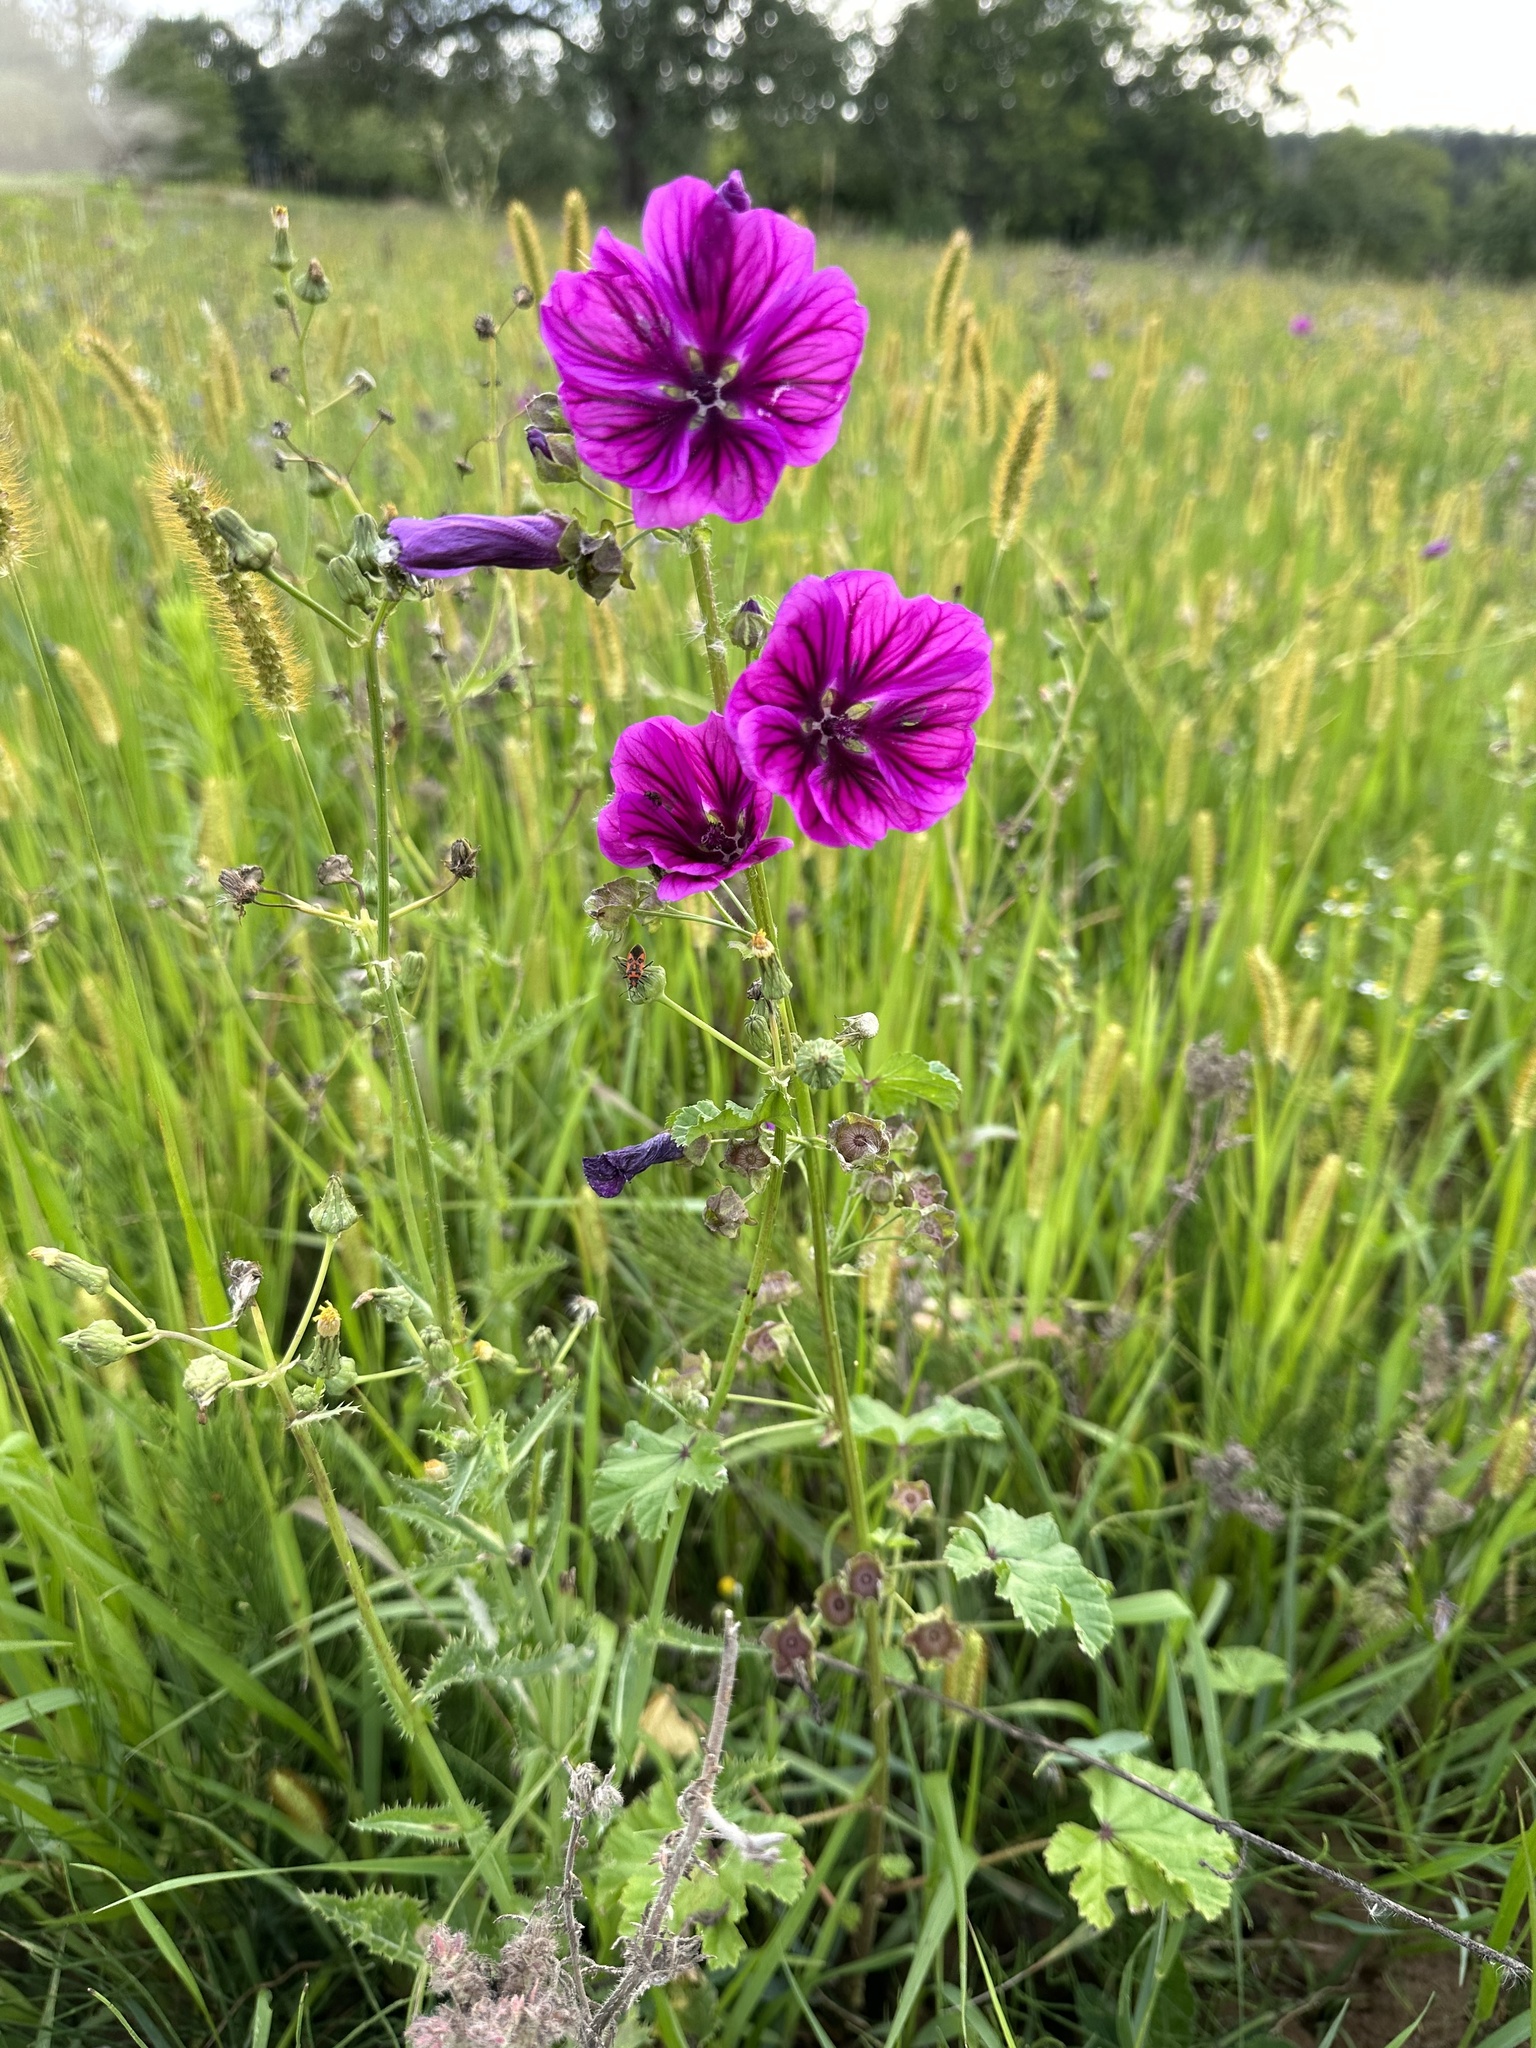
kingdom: Plantae
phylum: Tracheophyta
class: Magnoliopsida
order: Malvales
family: Malvaceae
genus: Malva
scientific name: Malva sylvestris
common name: Common mallow
